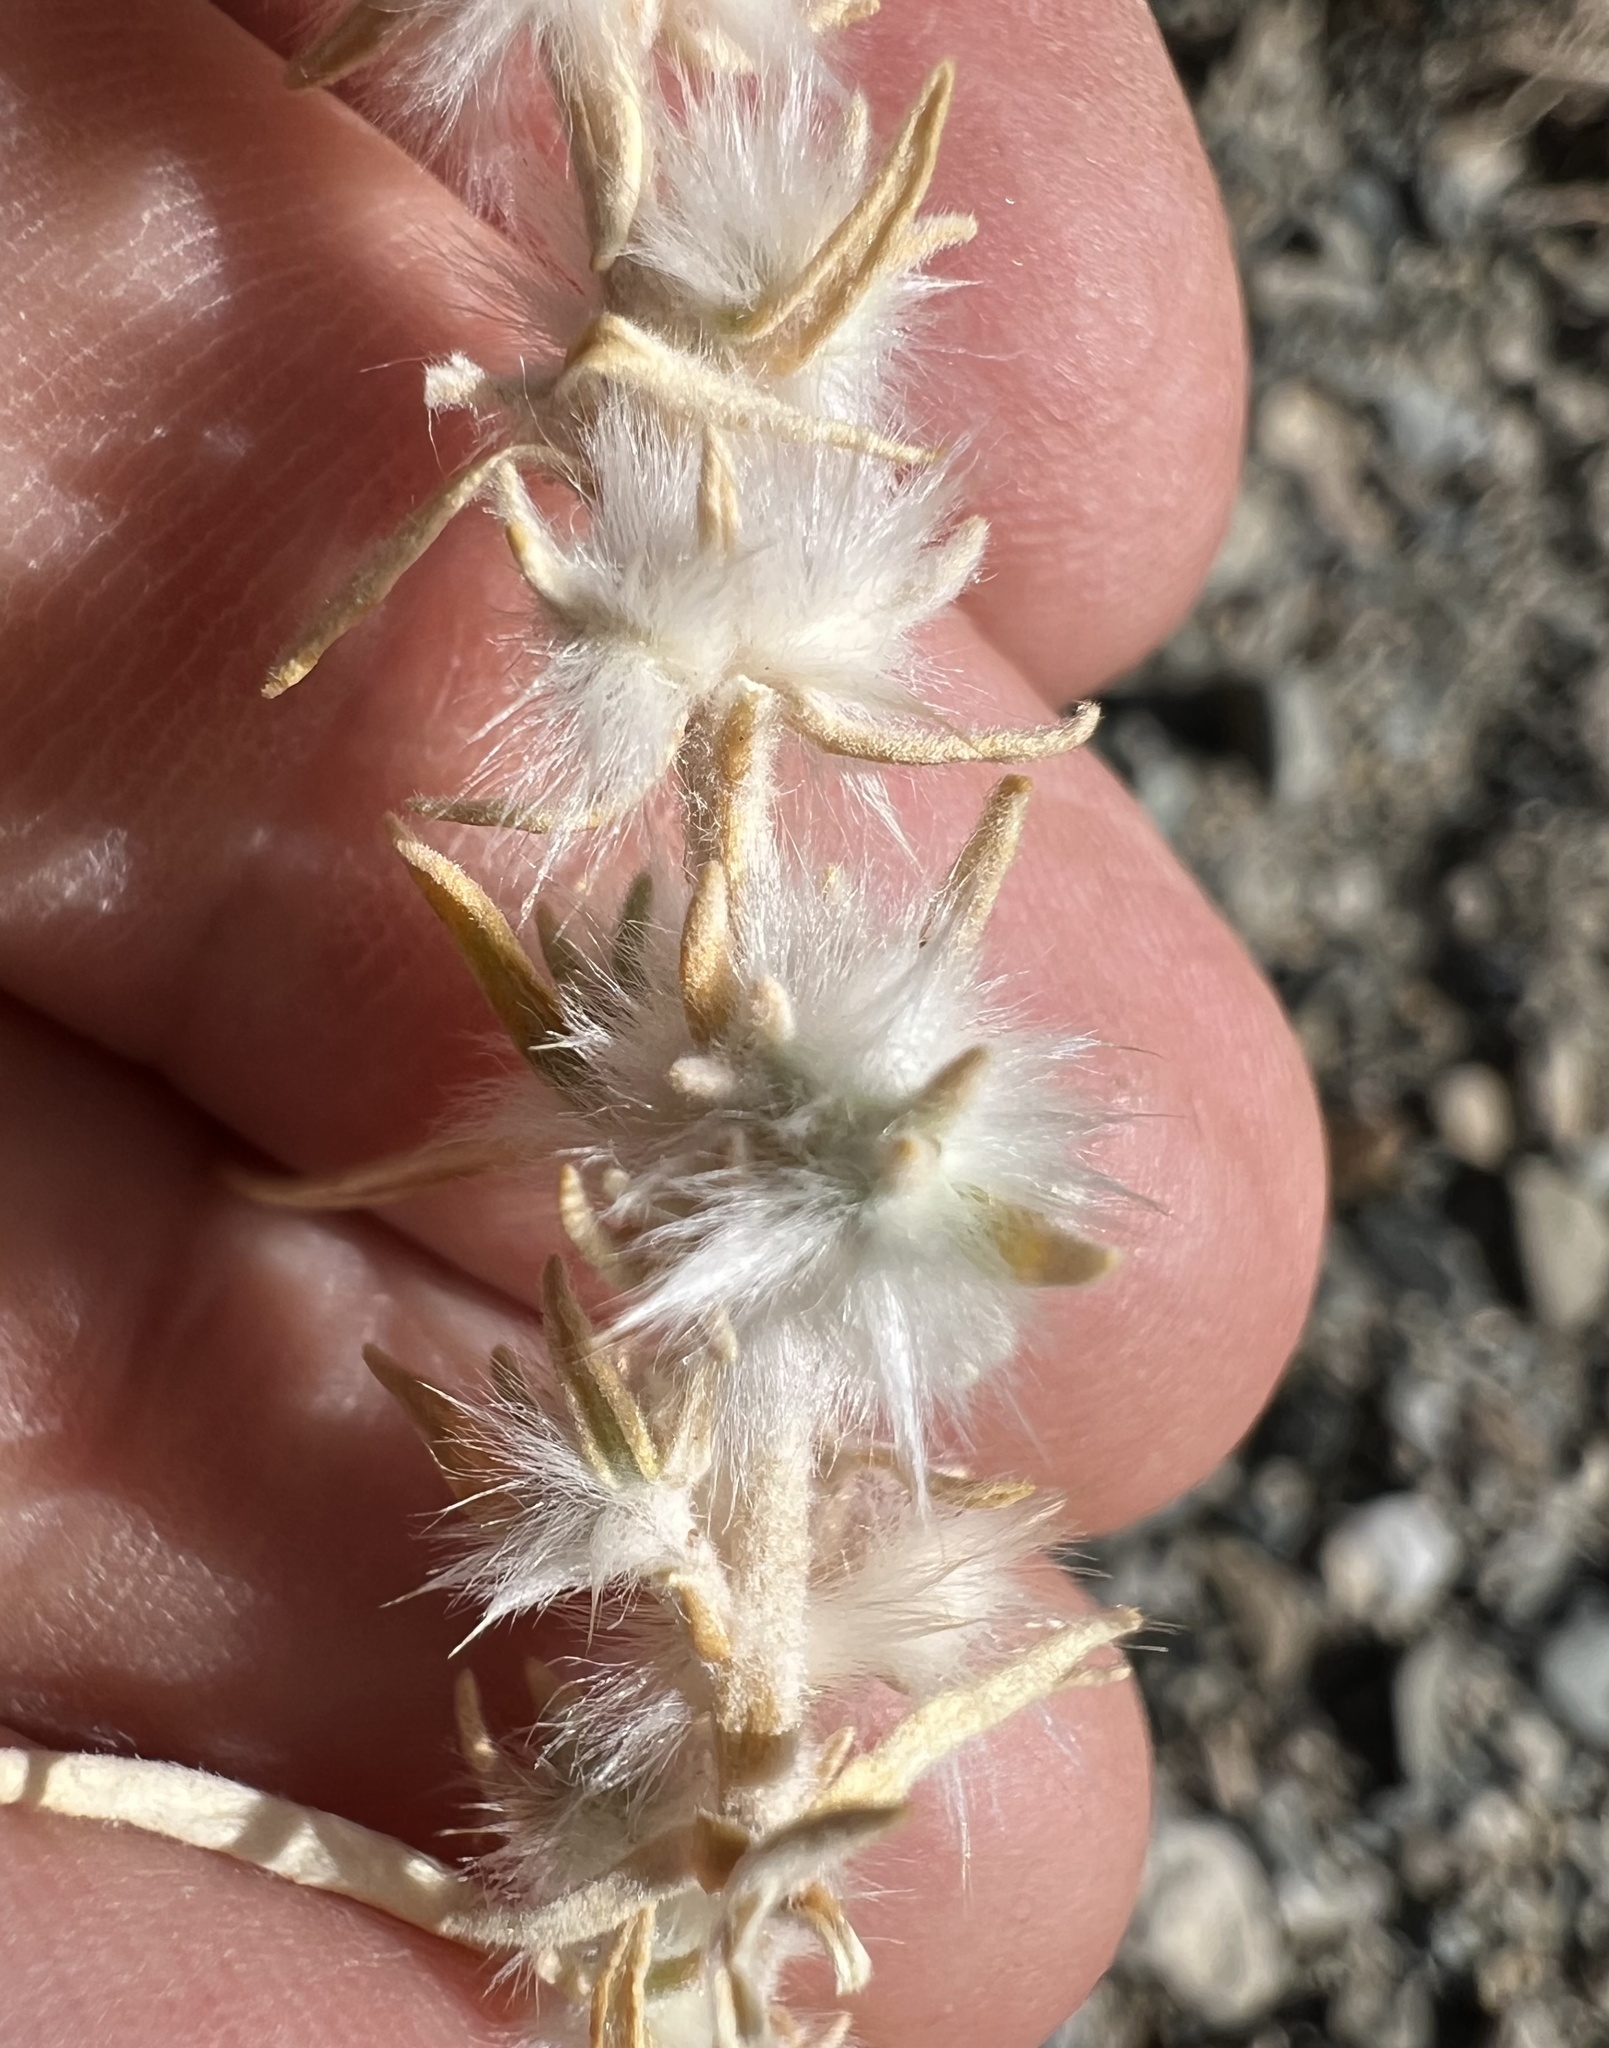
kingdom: Plantae
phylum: Tracheophyta
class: Magnoliopsida
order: Caryophyllales
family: Amaranthaceae
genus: Krascheninnikovia
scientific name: Krascheninnikovia lanata
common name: Winterfat
